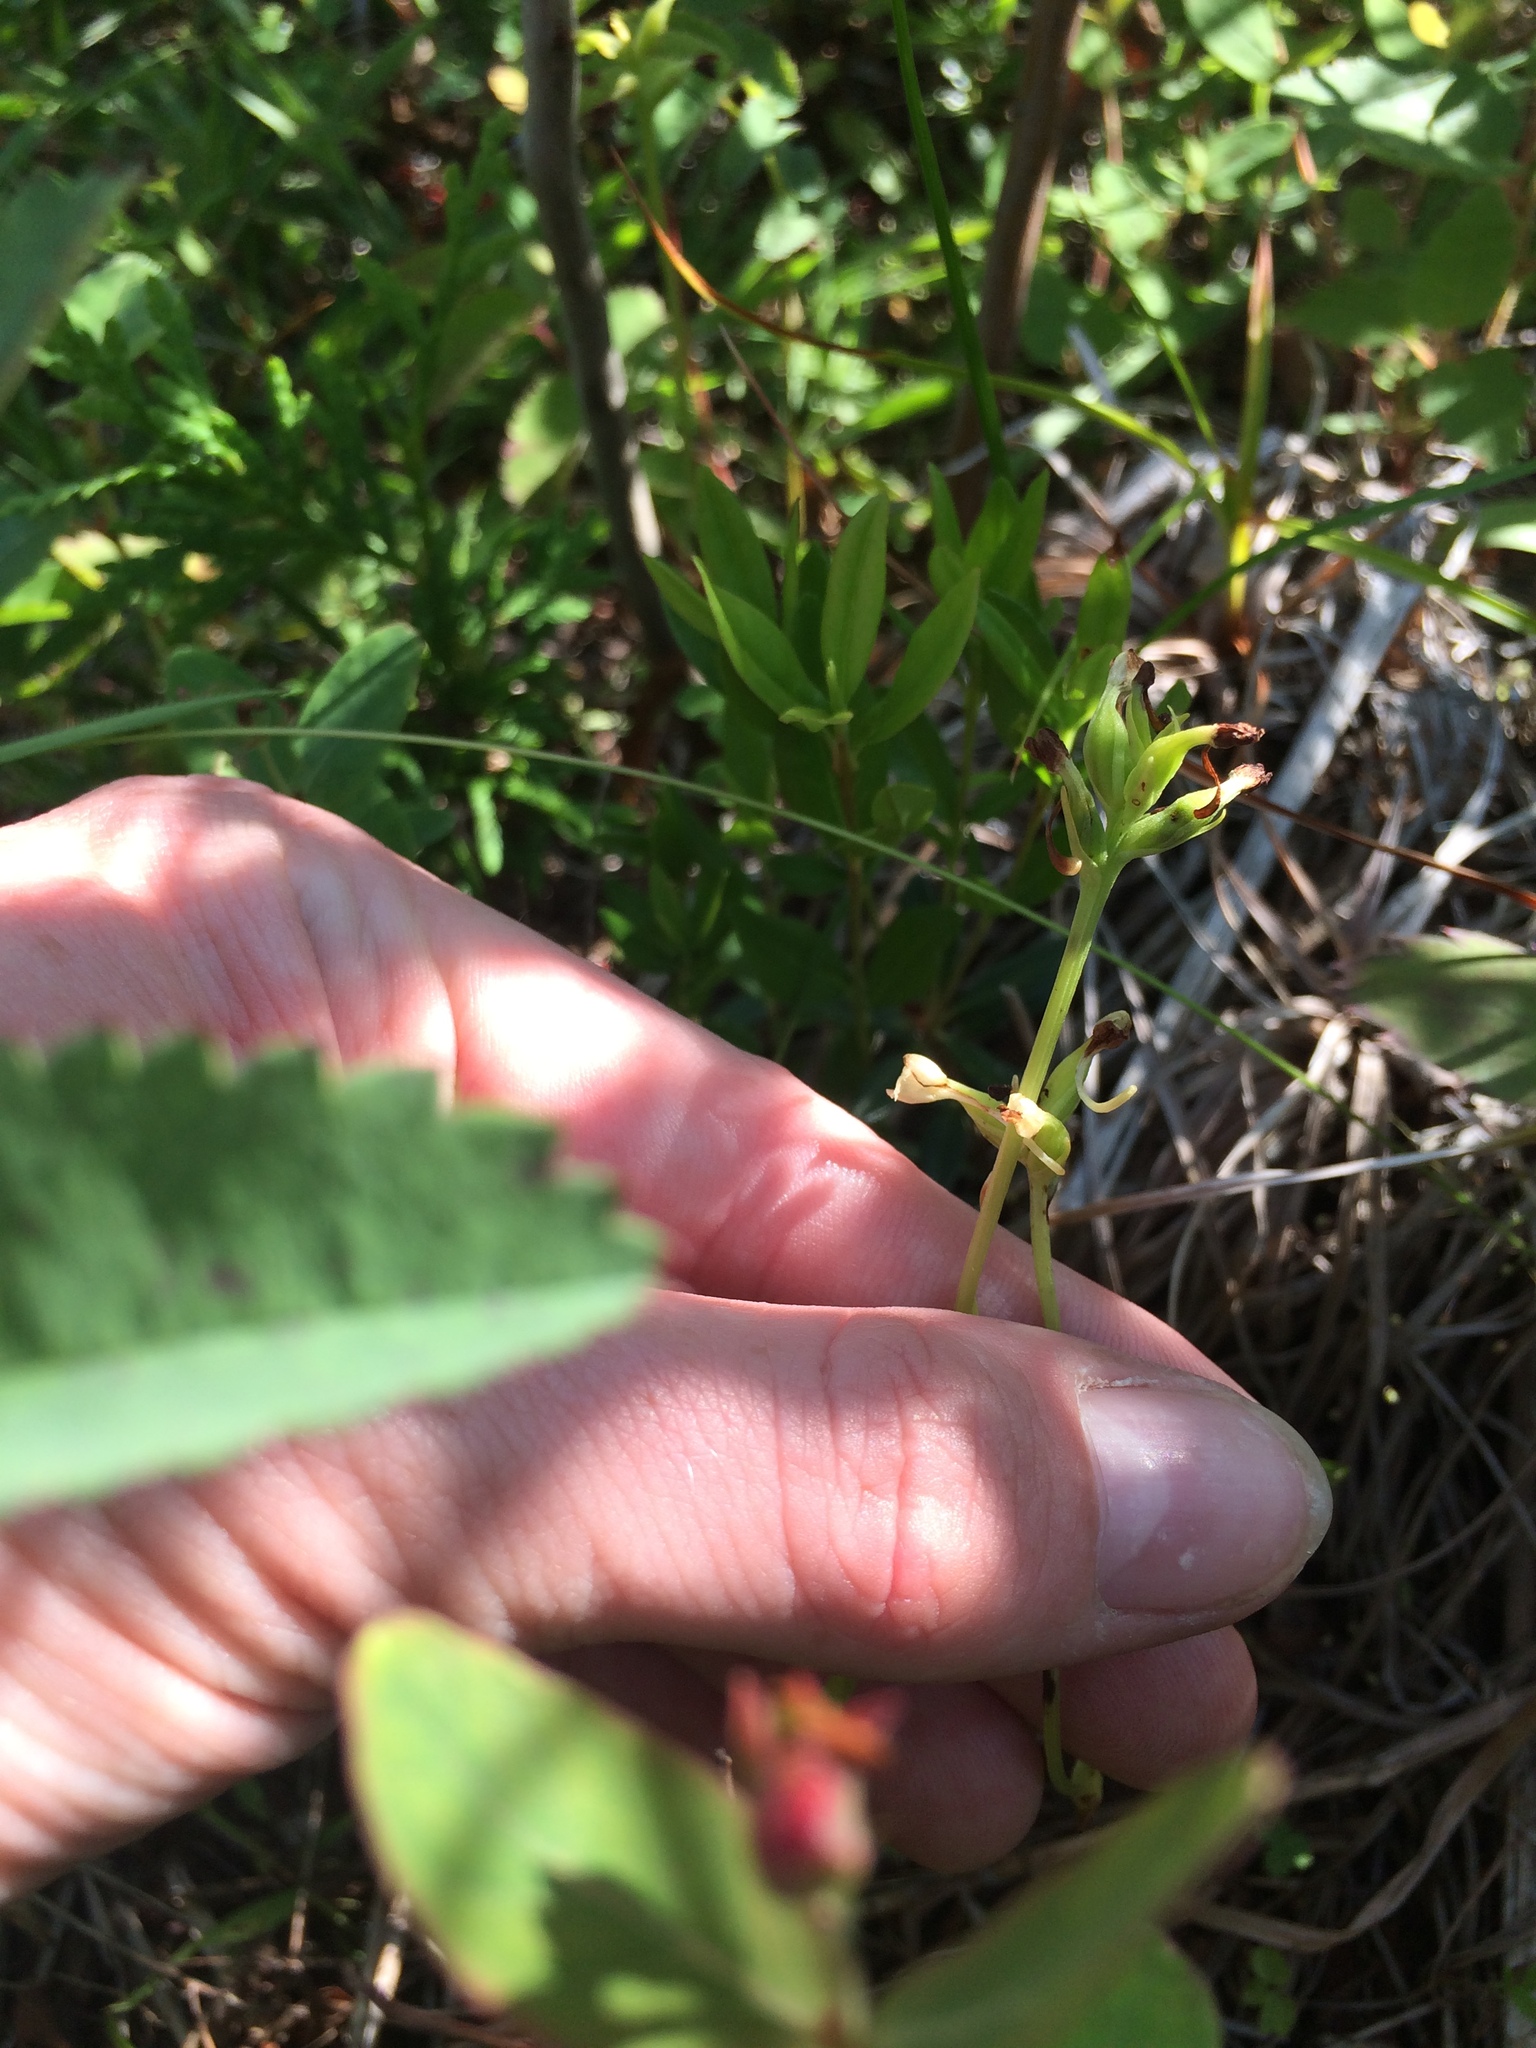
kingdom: Plantae
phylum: Tracheophyta
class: Liliopsida
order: Asparagales
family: Orchidaceae
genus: Platanthera
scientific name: Platanthera clavellata
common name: Club-spur orchid
